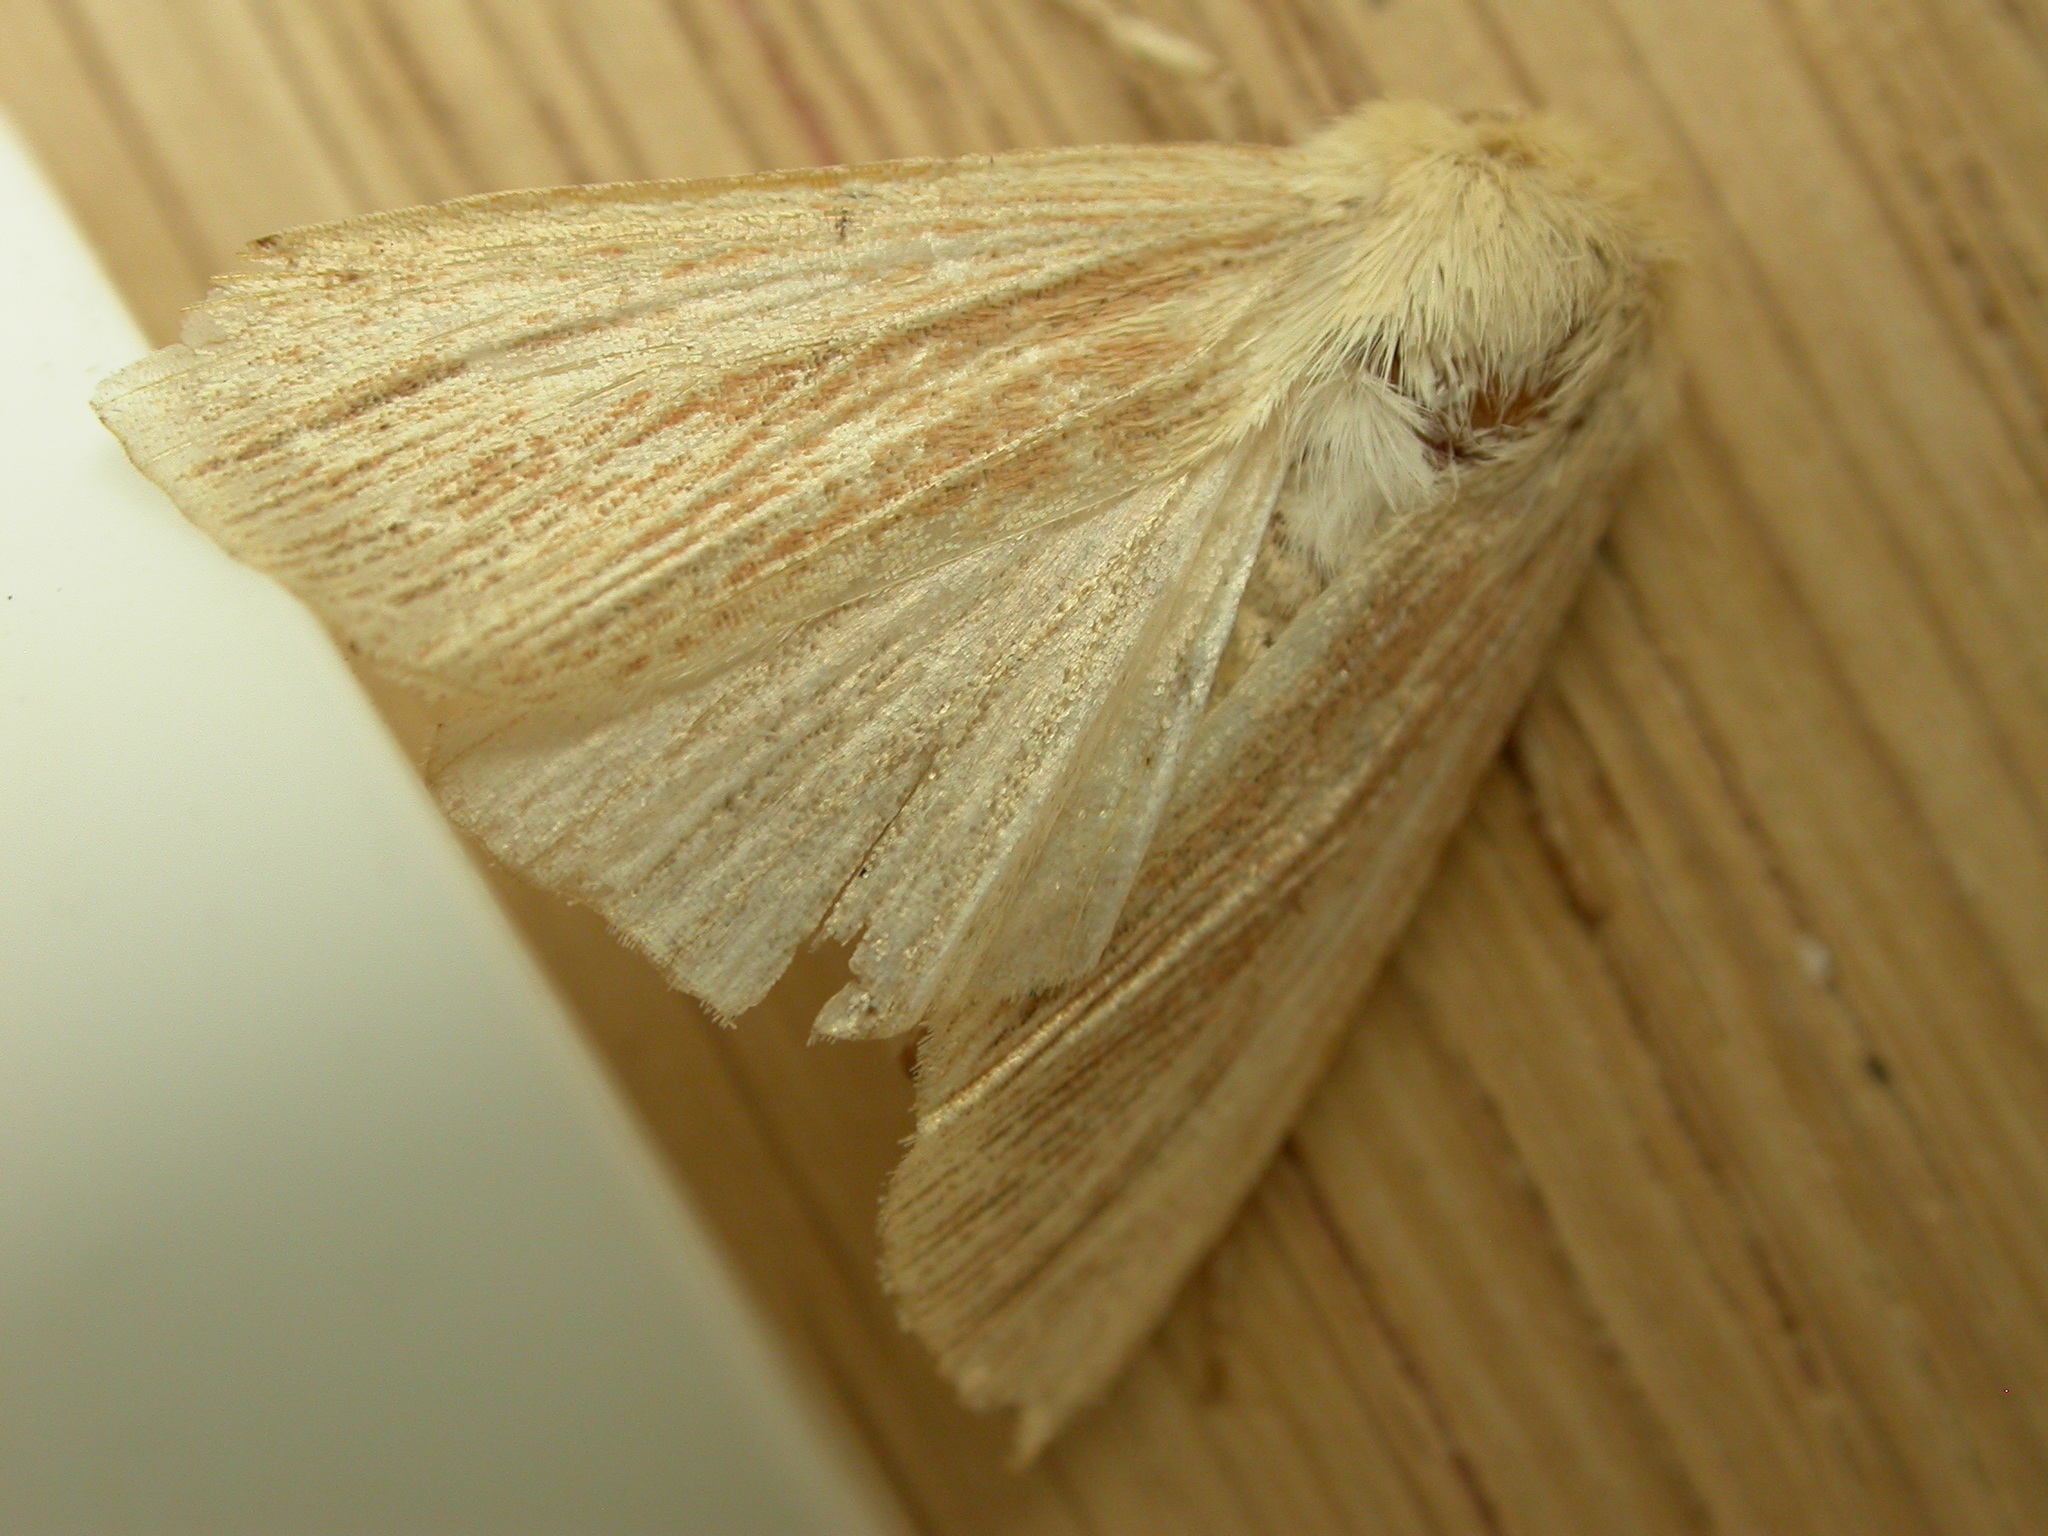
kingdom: Animalia
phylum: Arthropoda
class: Insecta
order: Lepidoptera
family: Noctuidae
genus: Mythimna
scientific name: Mythimna pallens
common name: Common wainscot
